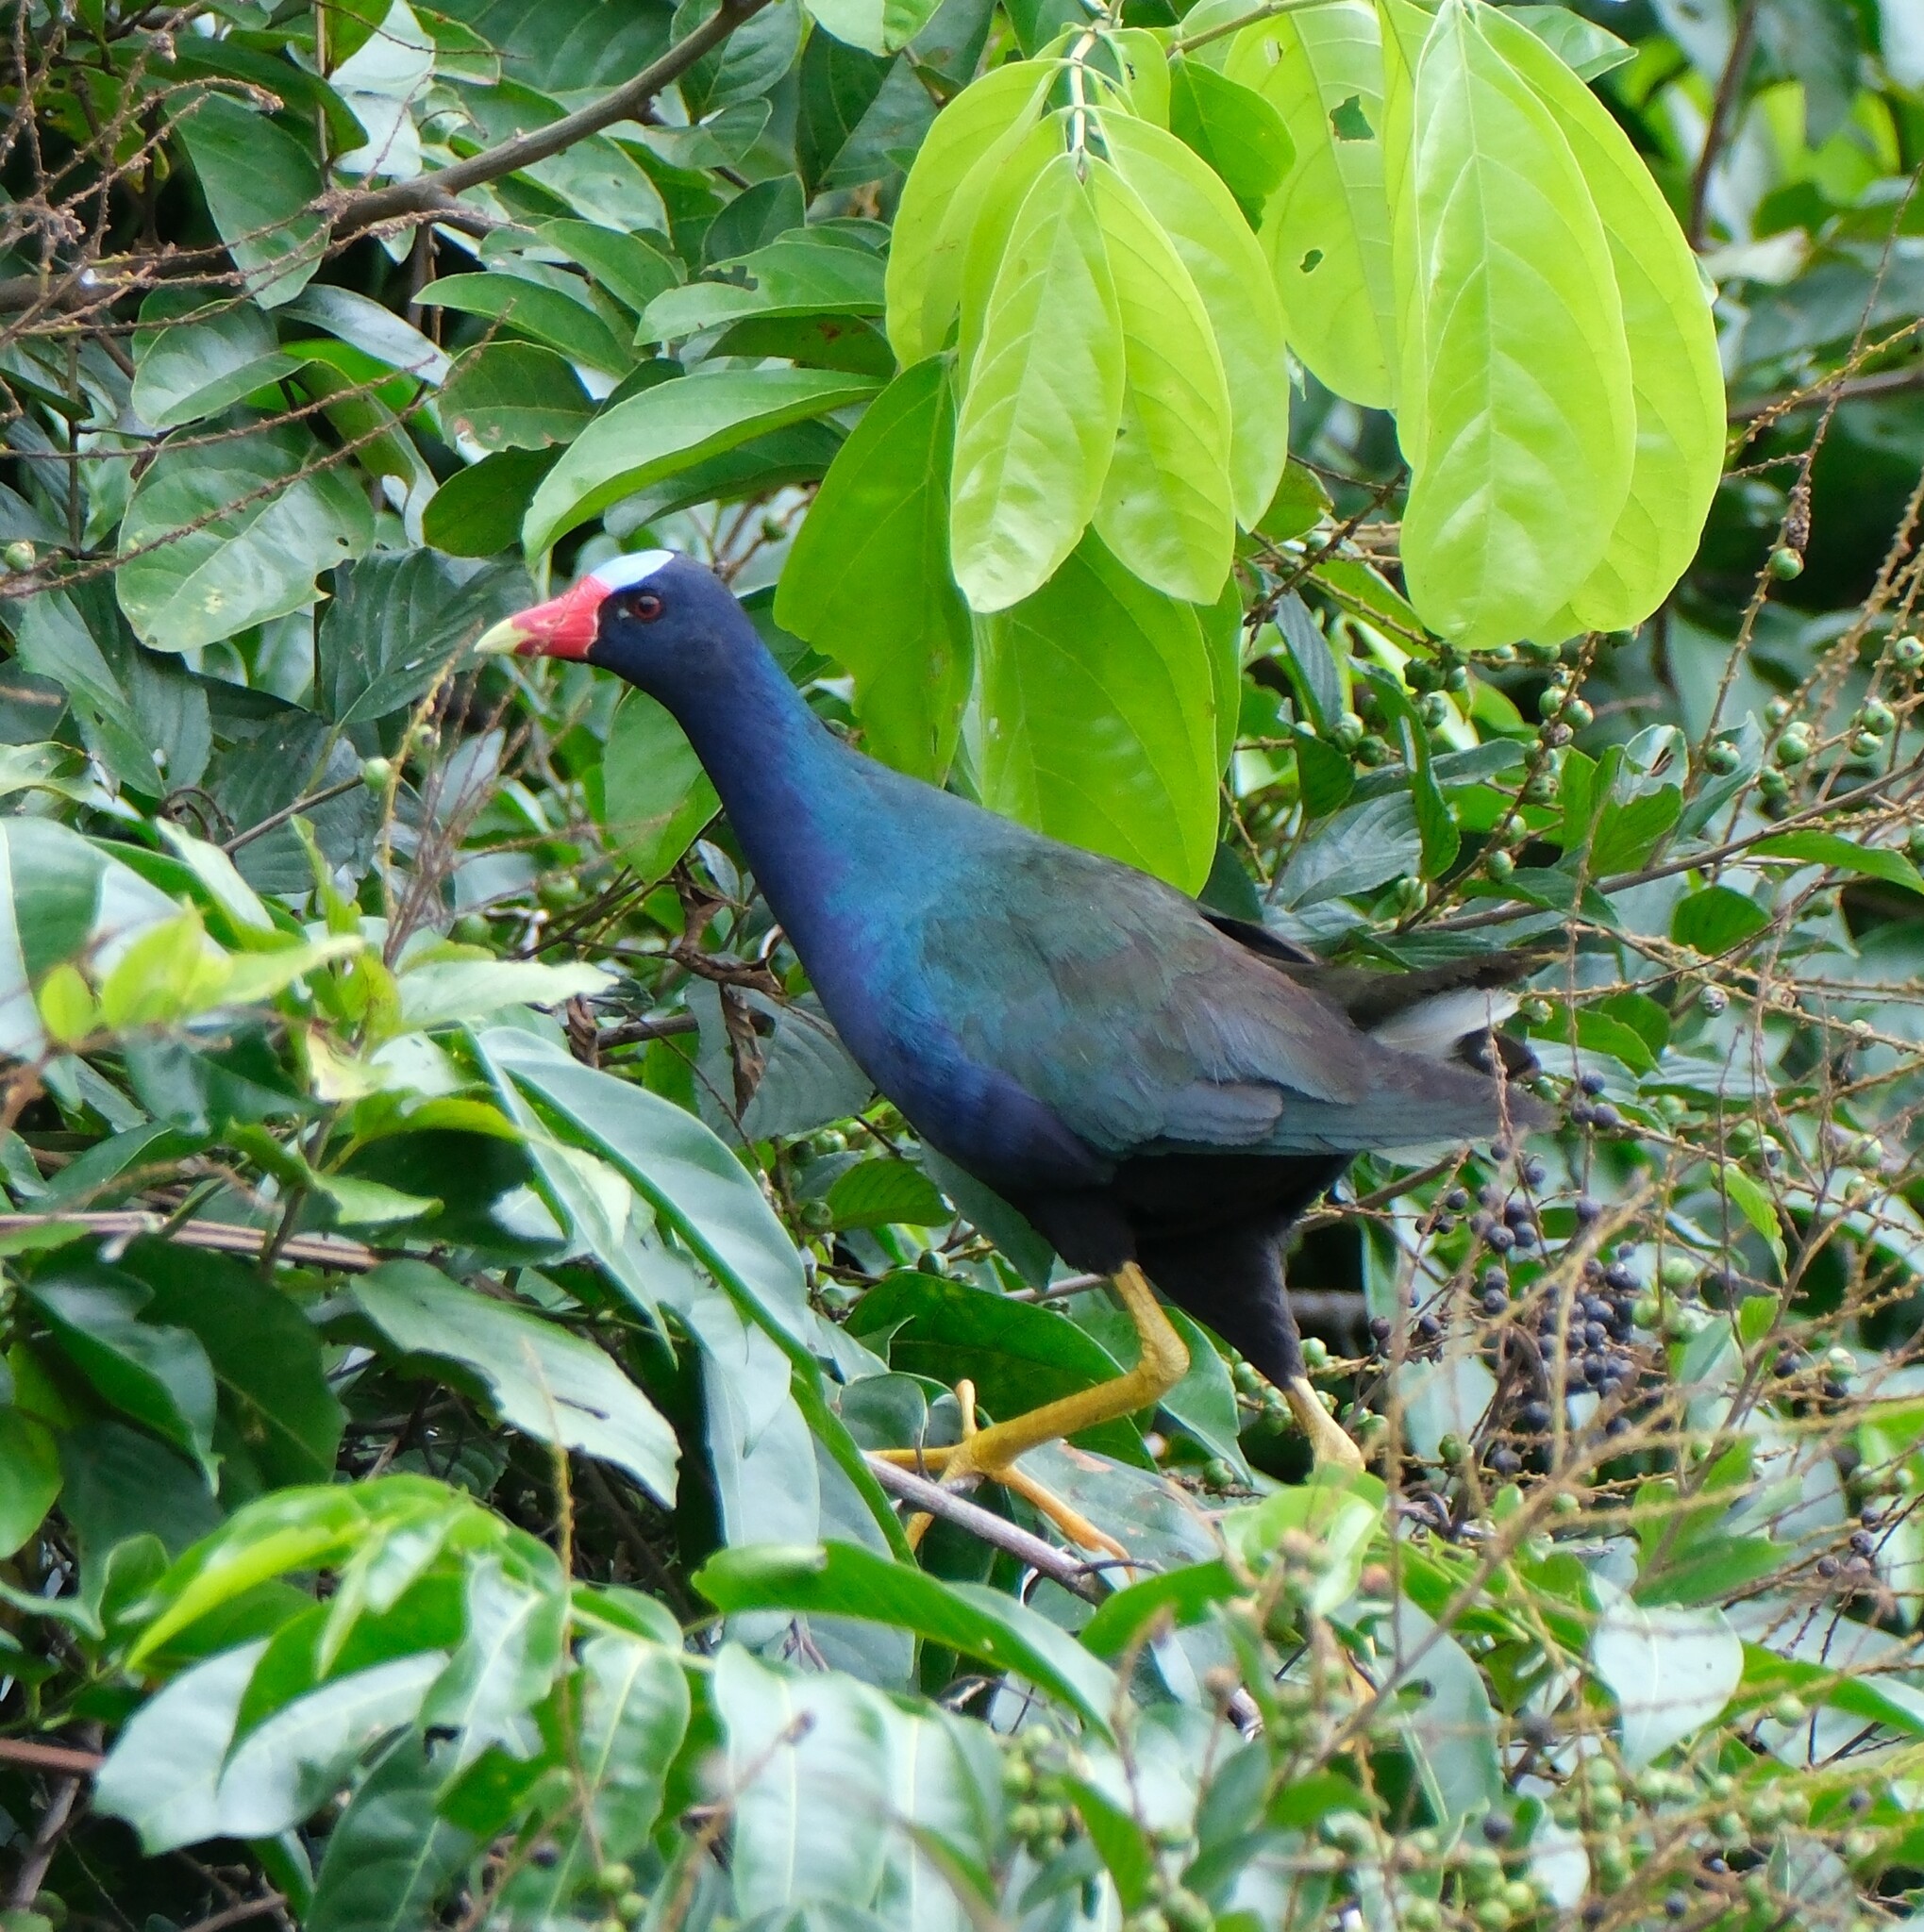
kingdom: Animalia
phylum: Chordata
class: Aves
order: Gruiformes
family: Rallidae
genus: Porphyrio
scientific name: Porphyrio martinica
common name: Purple gallinule
